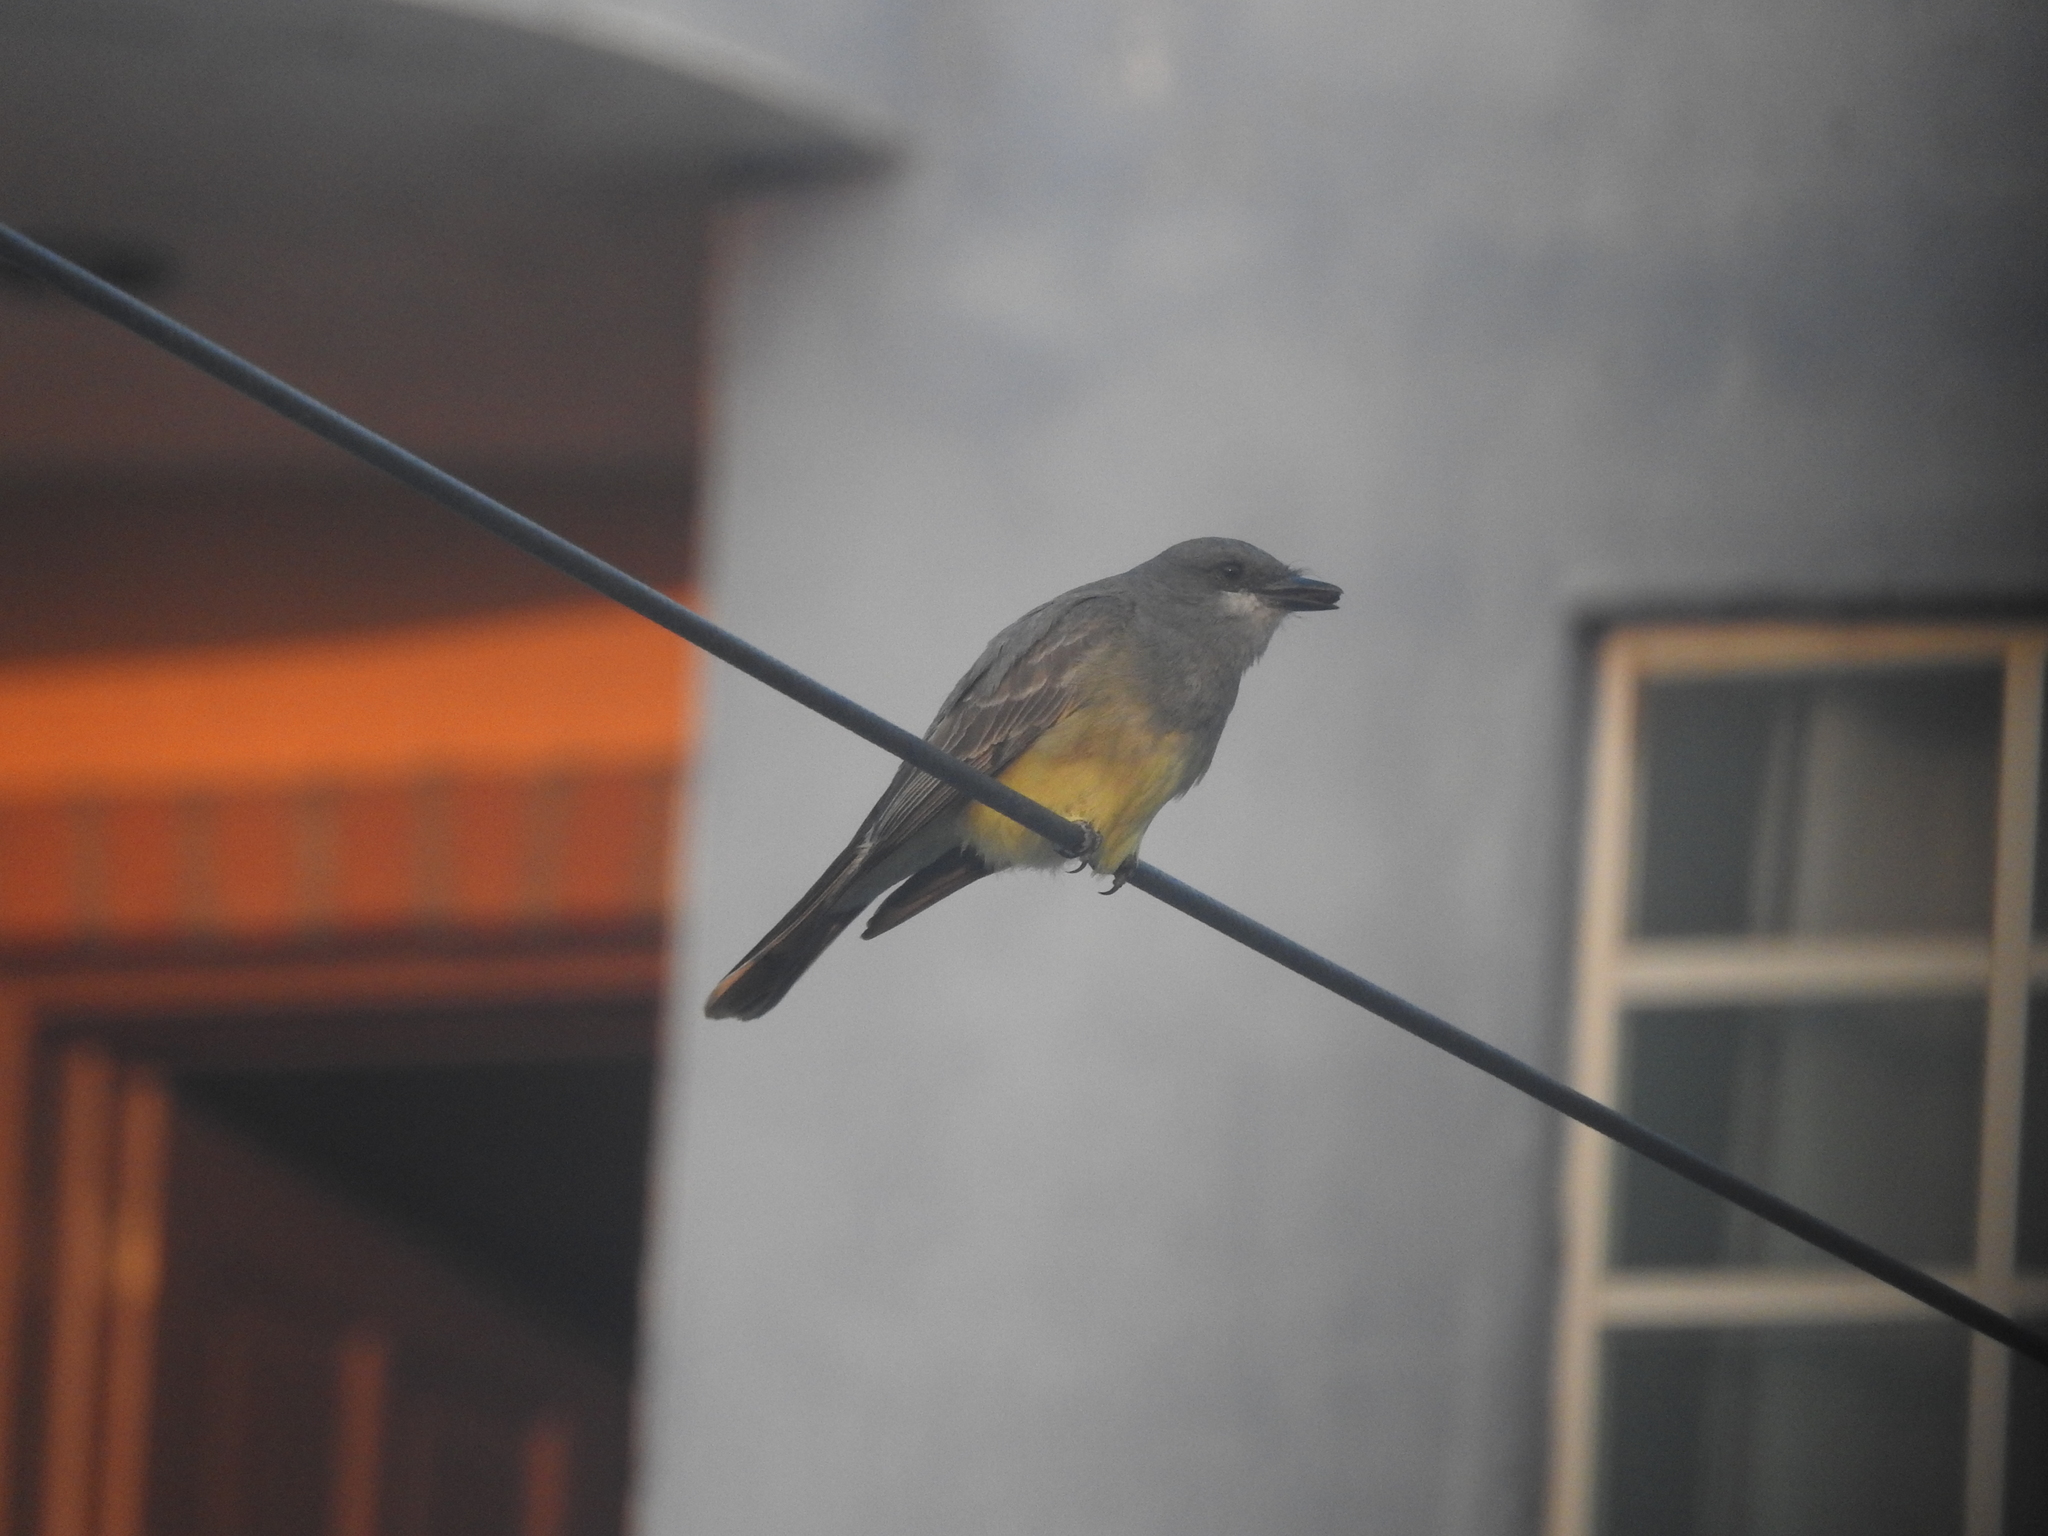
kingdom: Animalia
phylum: Chordata
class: Aves
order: Passeriformes
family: Tyrannidae
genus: Tyrannus
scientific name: Tyrannus vociferans
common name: Cassin's kingbird
